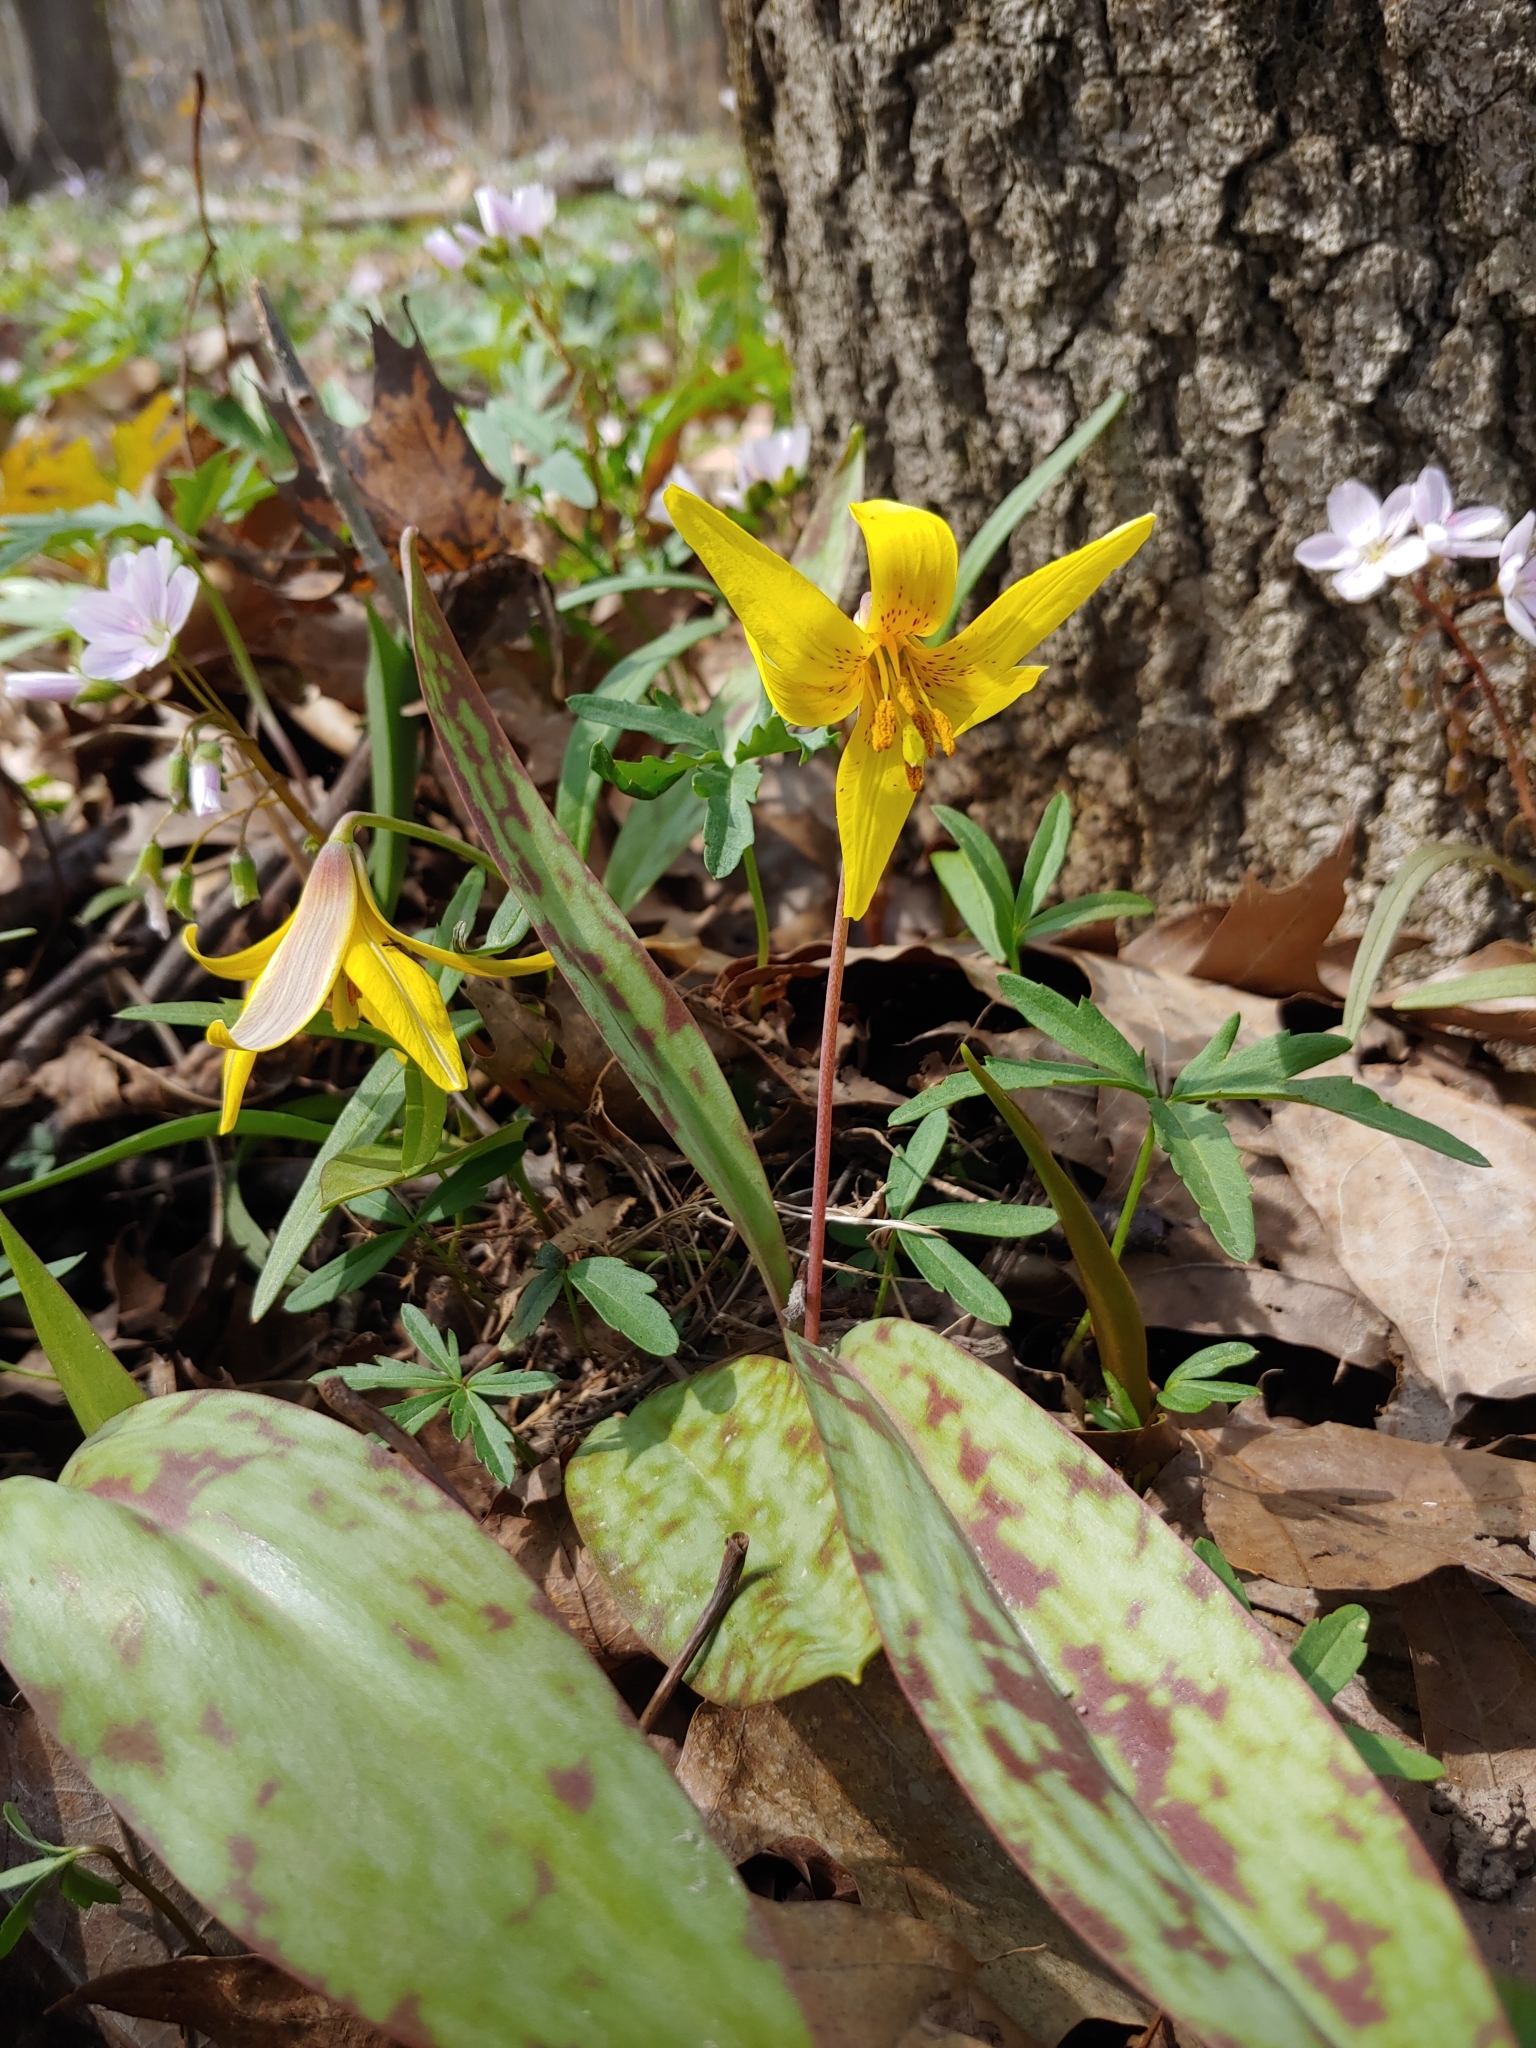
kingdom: Plantae
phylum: Tracheophyta
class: Liliopsida
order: Liliales
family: Liliaceae
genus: Erythronium
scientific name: Erythronium americanum
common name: Yellow adder's-tongue
